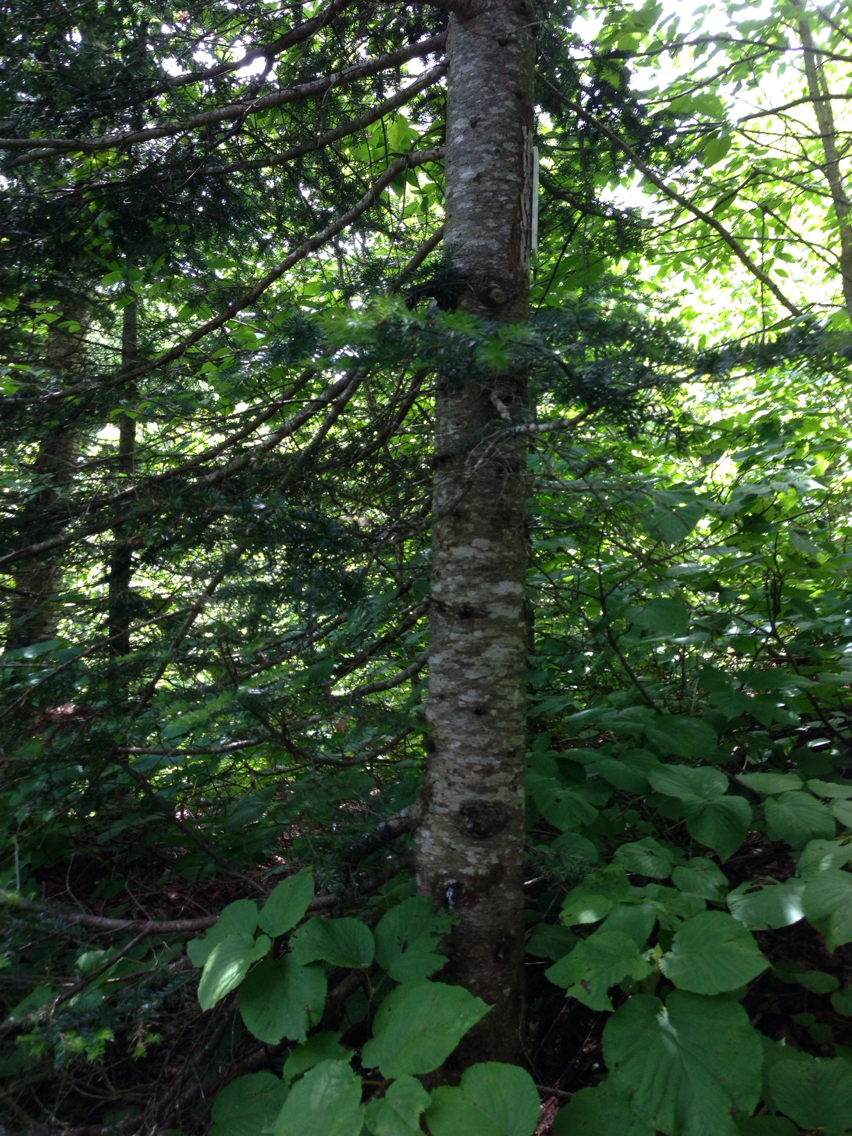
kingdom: Plantae
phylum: Tracheophyta
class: Pinopsida
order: Pinales
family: Pinaceae
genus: Abies
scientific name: Abies balsamea
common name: Balsam fir
